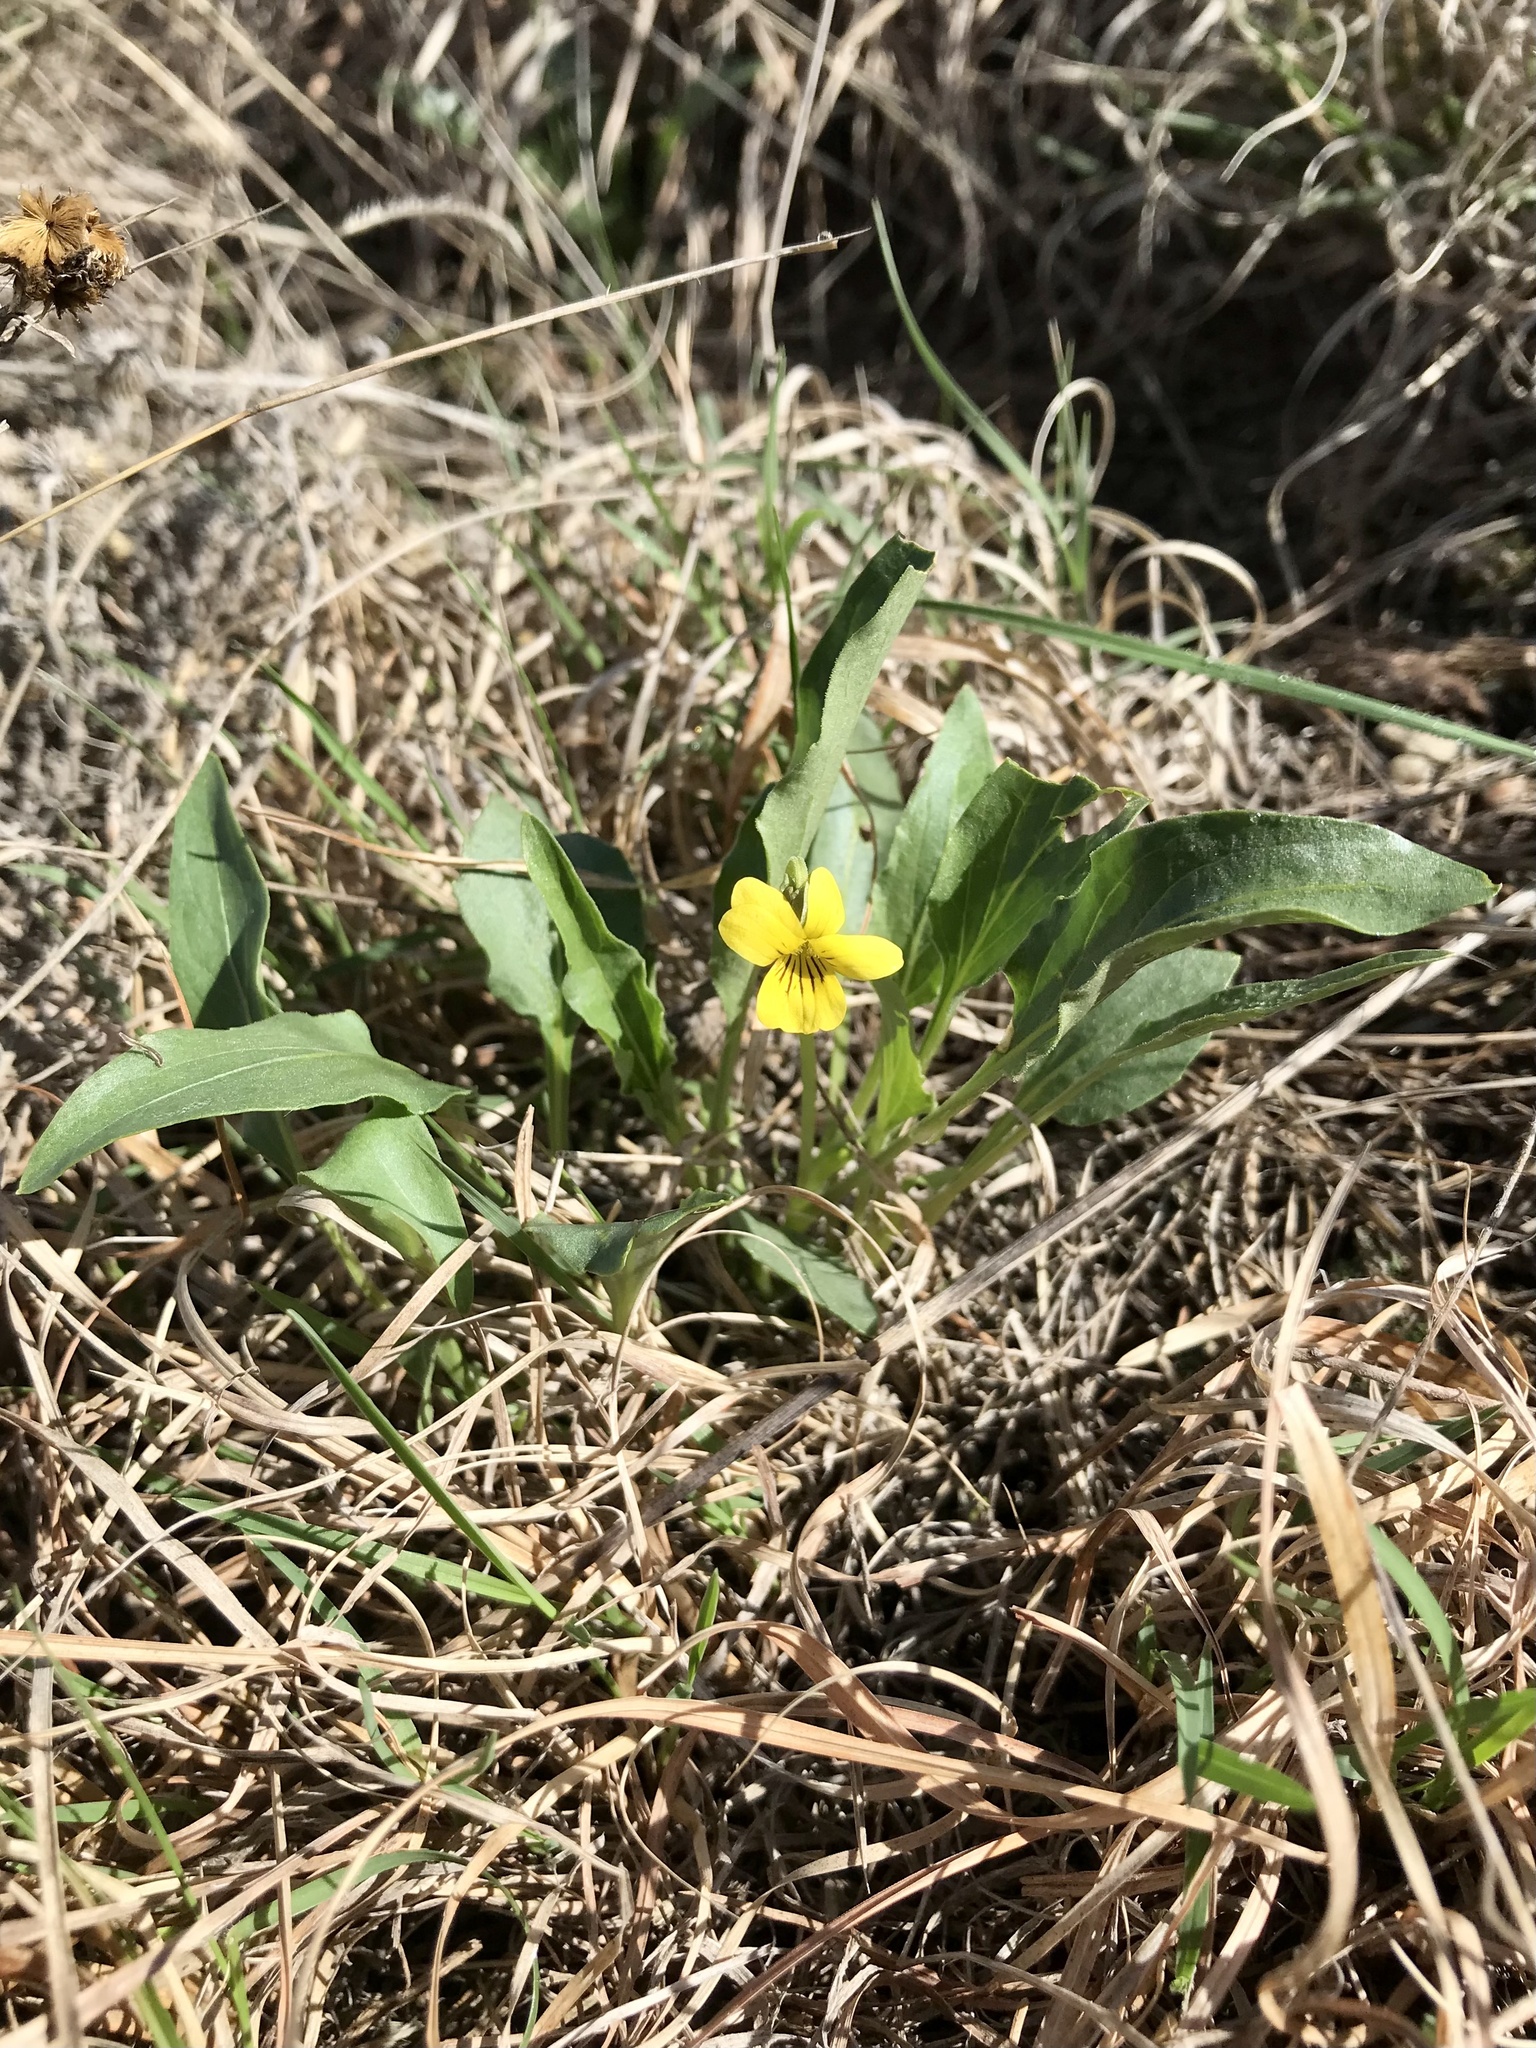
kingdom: Plantae
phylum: Tracheophyta
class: Magnoliopsida
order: Malpighiales
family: Violaceae
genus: Viola
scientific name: Viola nuttallii
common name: Yellow prairie violet
